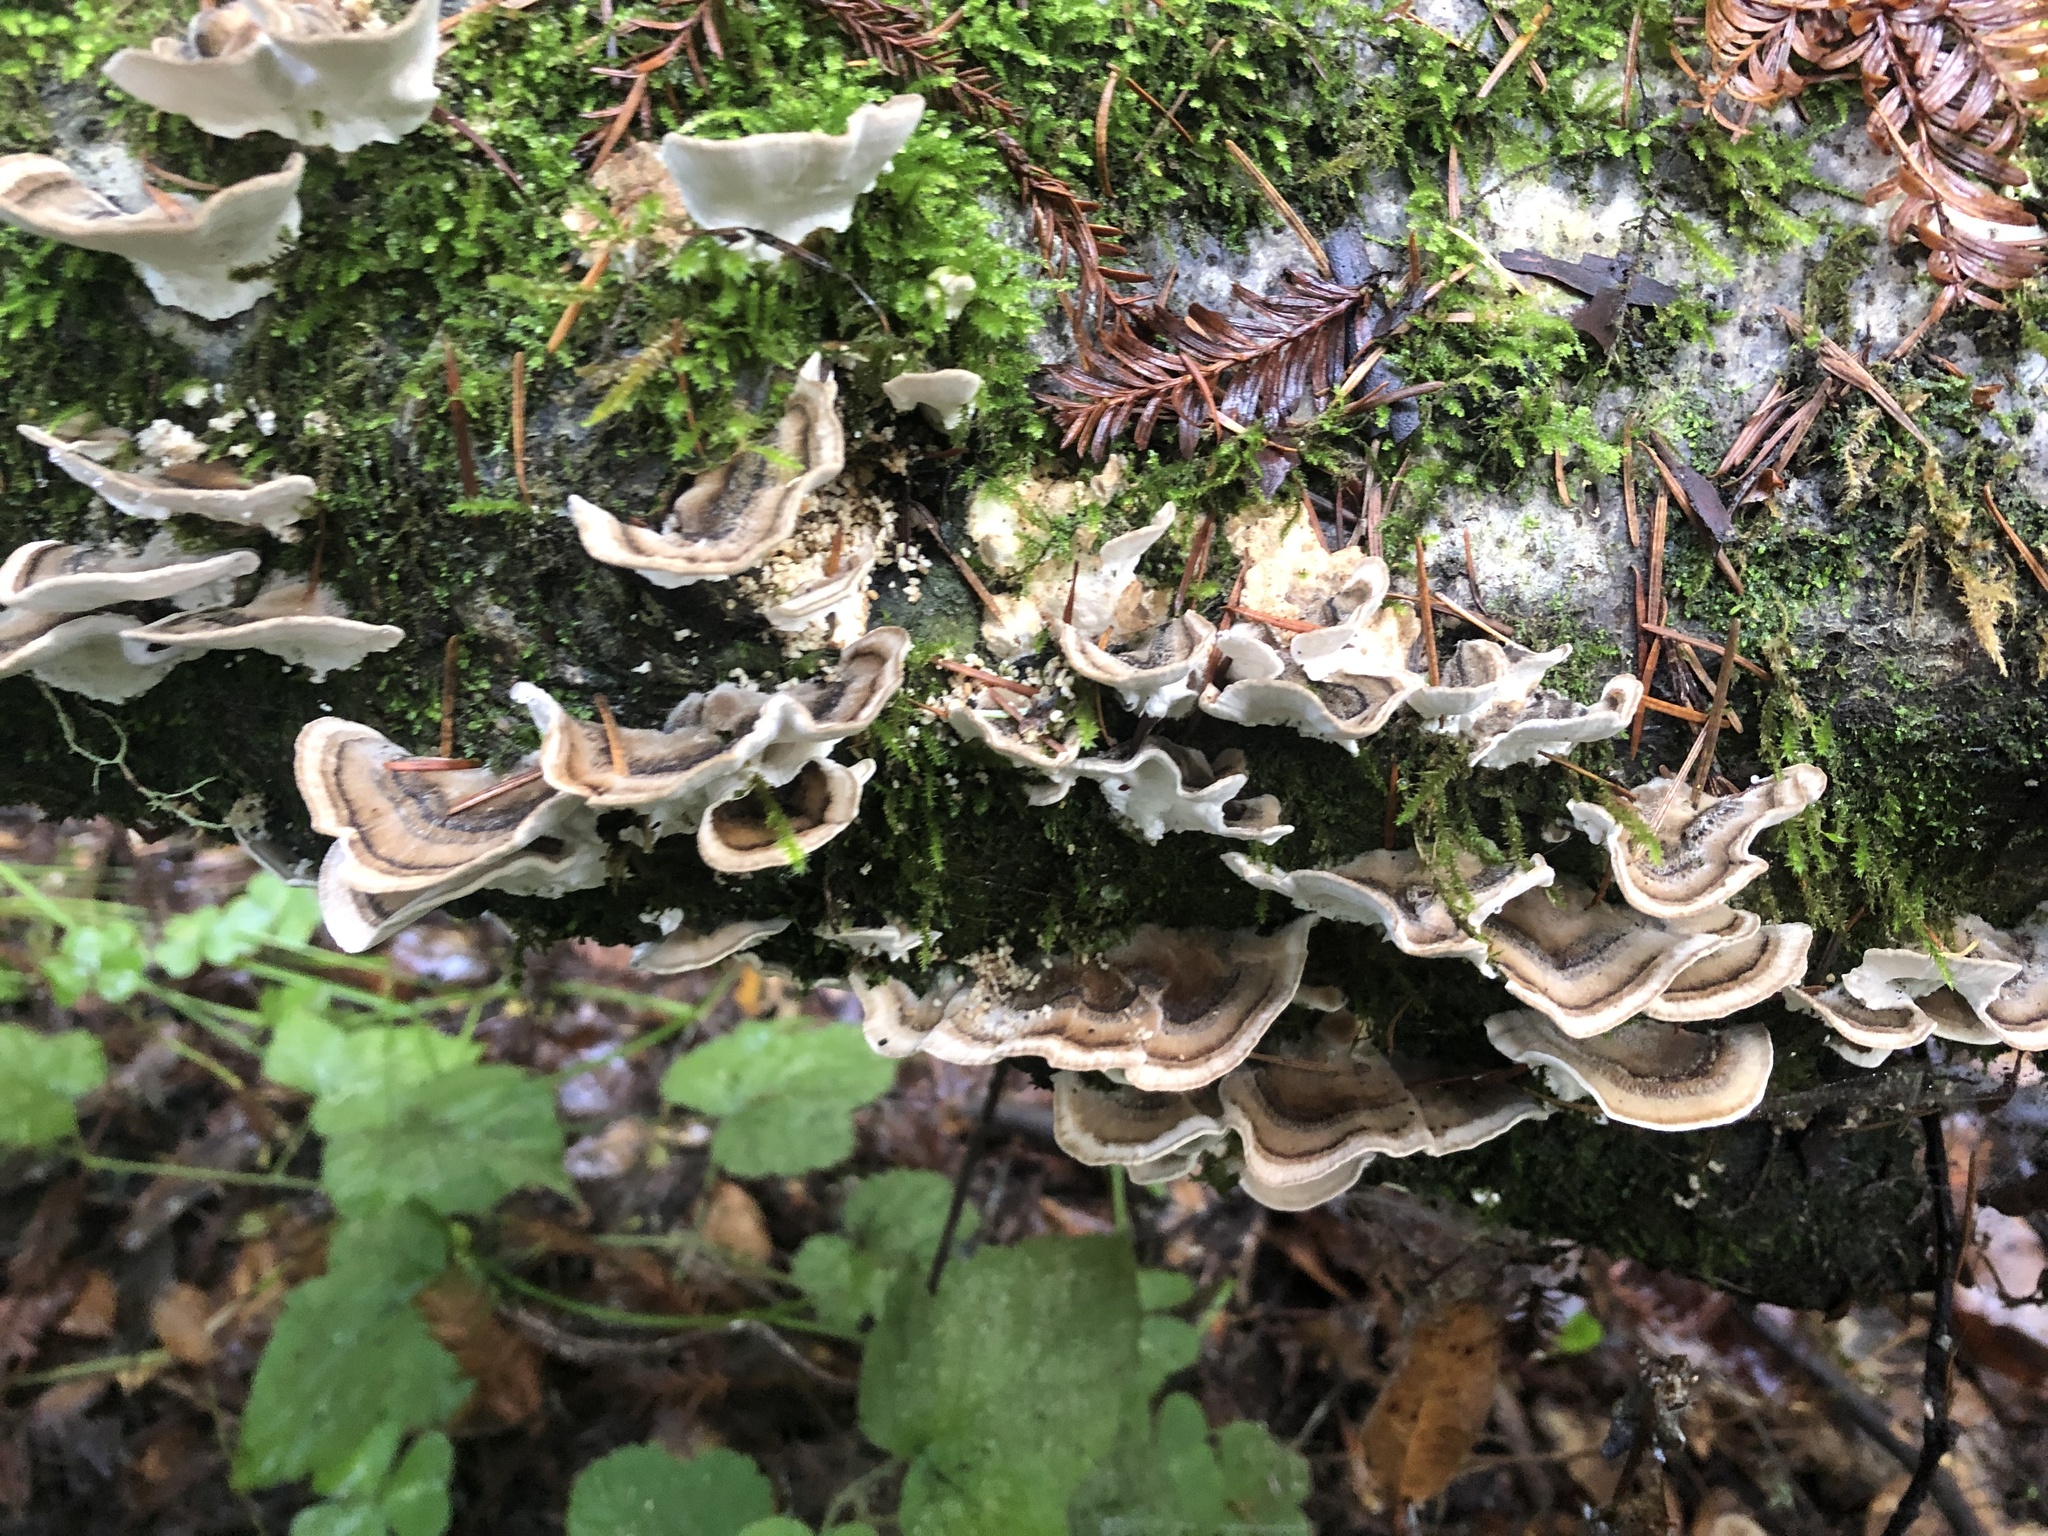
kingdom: Fungi
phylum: Basidiomycota
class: Agaricomycetes
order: Polyporales
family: Polyporaceae
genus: Trametes
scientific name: Trametes versicolor
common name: Turkeytail
